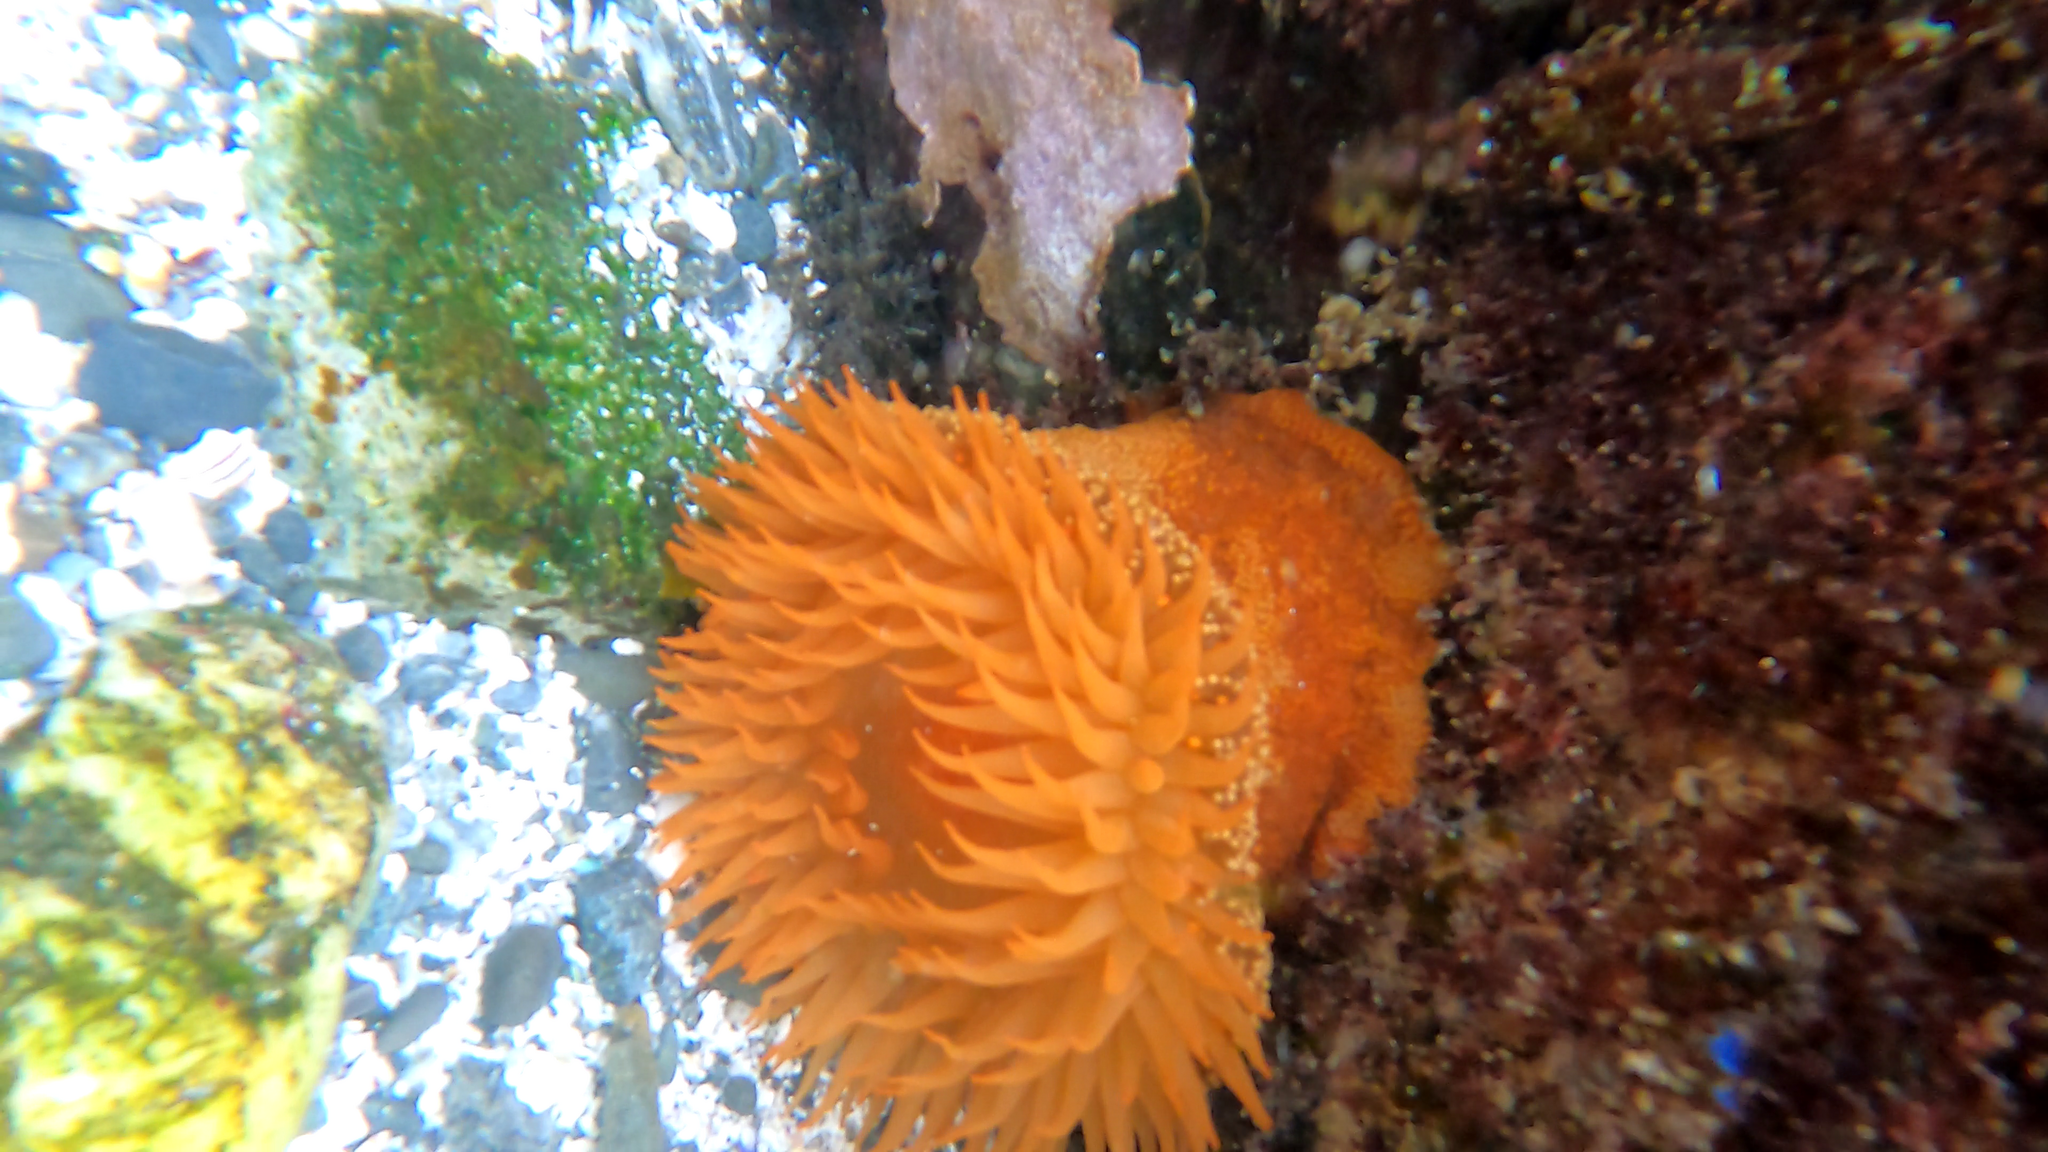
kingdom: Animalia
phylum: Cnidaria
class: Anthozoa
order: Actiniaria
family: Actiniidae
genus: Phymanthea
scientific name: Phymanthea pluvia
